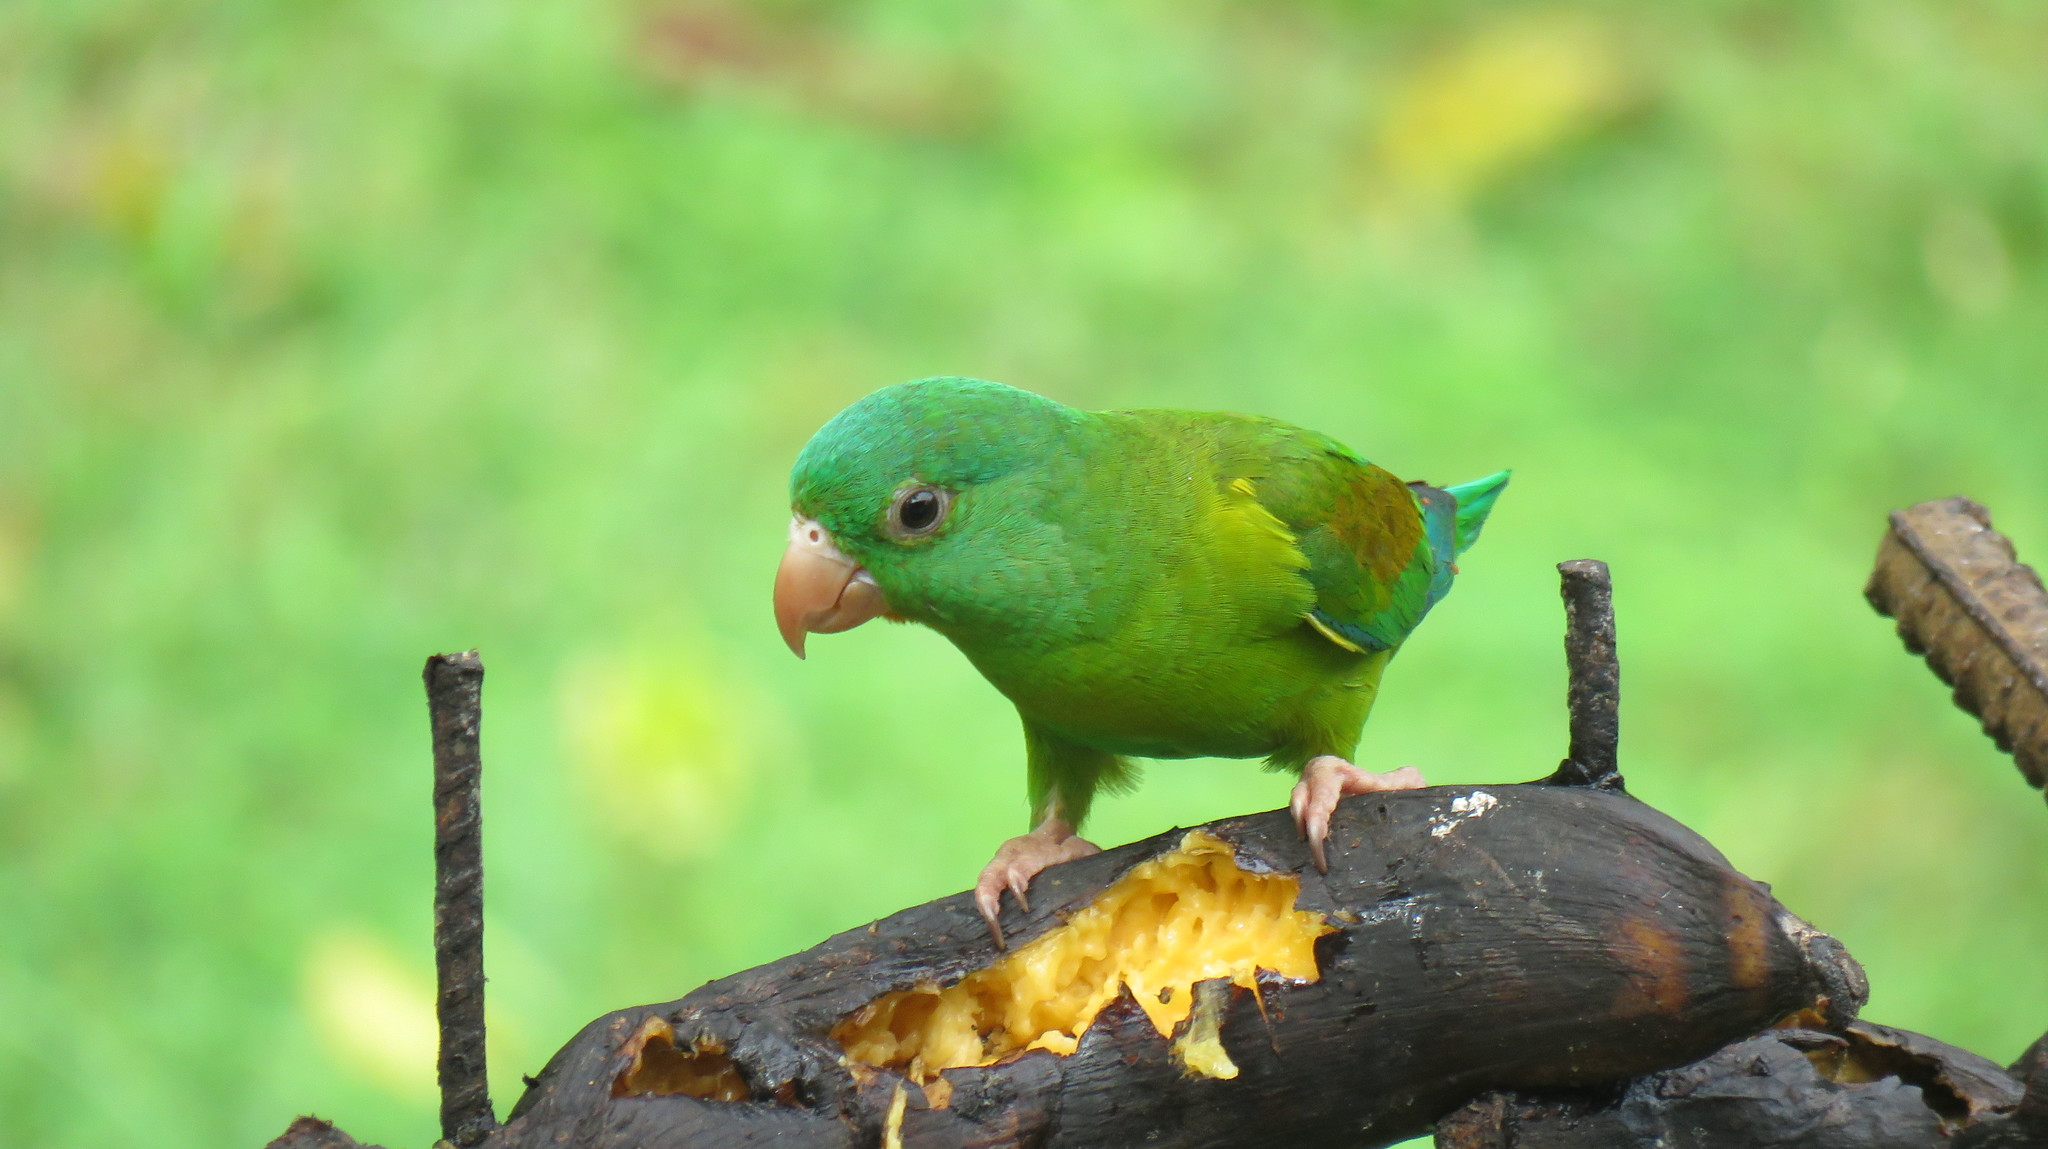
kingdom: Animalia
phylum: Chordata
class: Aves
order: Psittaciformes
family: Psittacidae
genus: Brotogeris
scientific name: Brotogeris jugularis
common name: Orange-chinned parakeet
